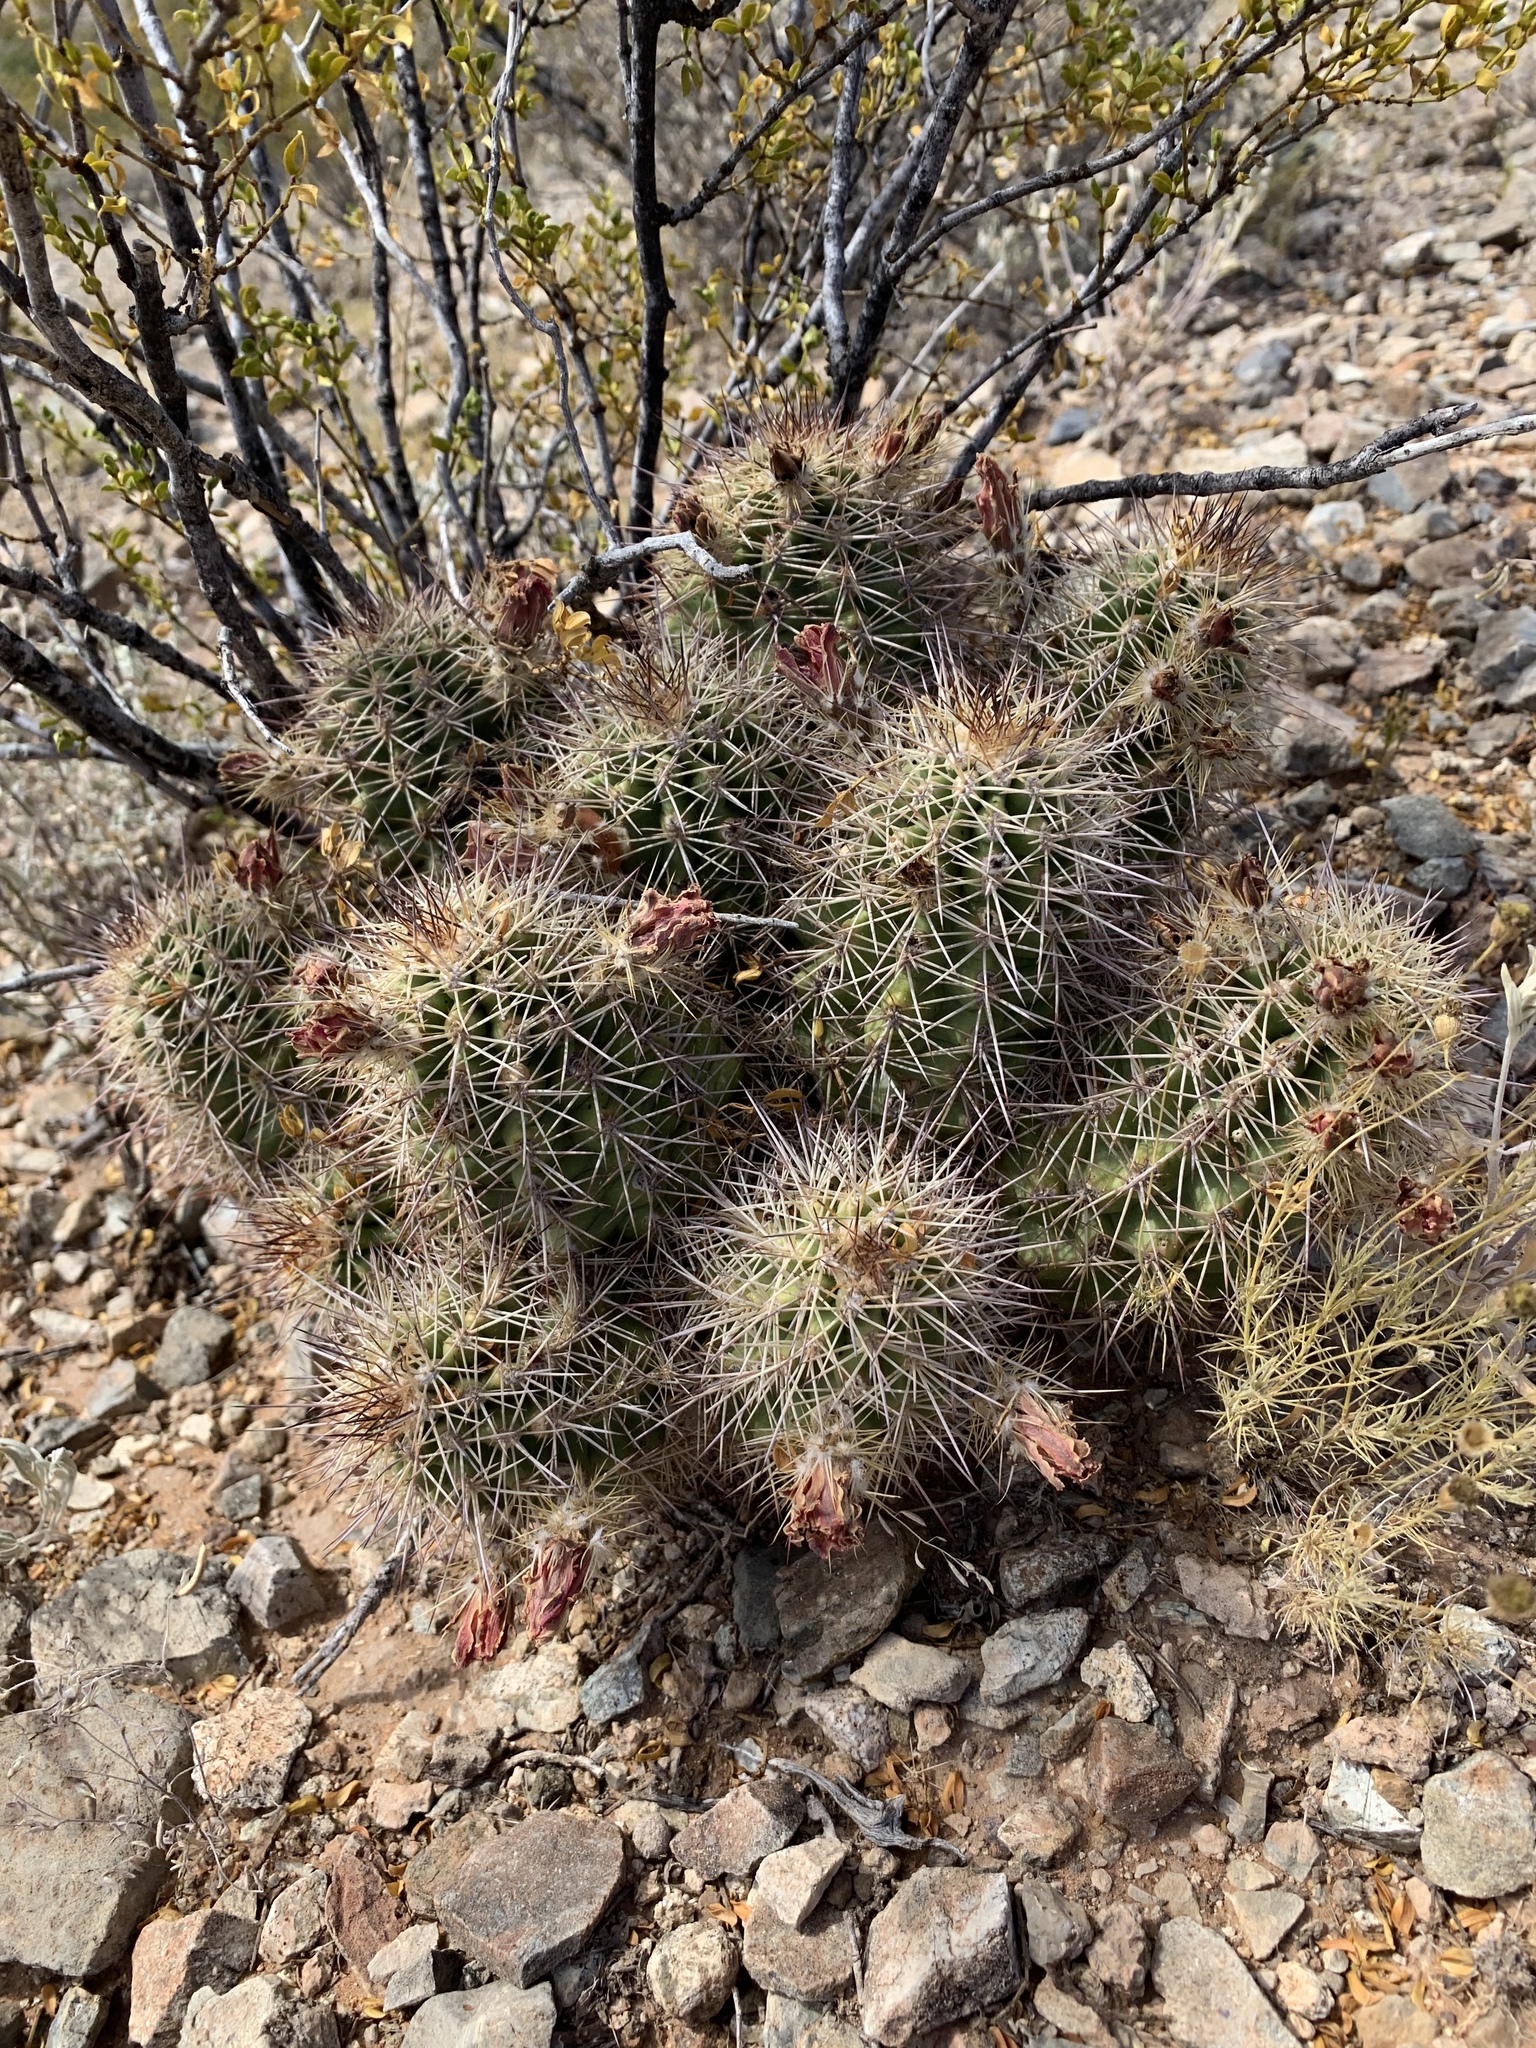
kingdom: Plantae
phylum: Tracheophyta
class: Magnoliopsida
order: Caryophyllales
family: Cactaceae
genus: Echinocereus
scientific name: Echinocereus coccineus
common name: Scarlet hedgehog cactus
